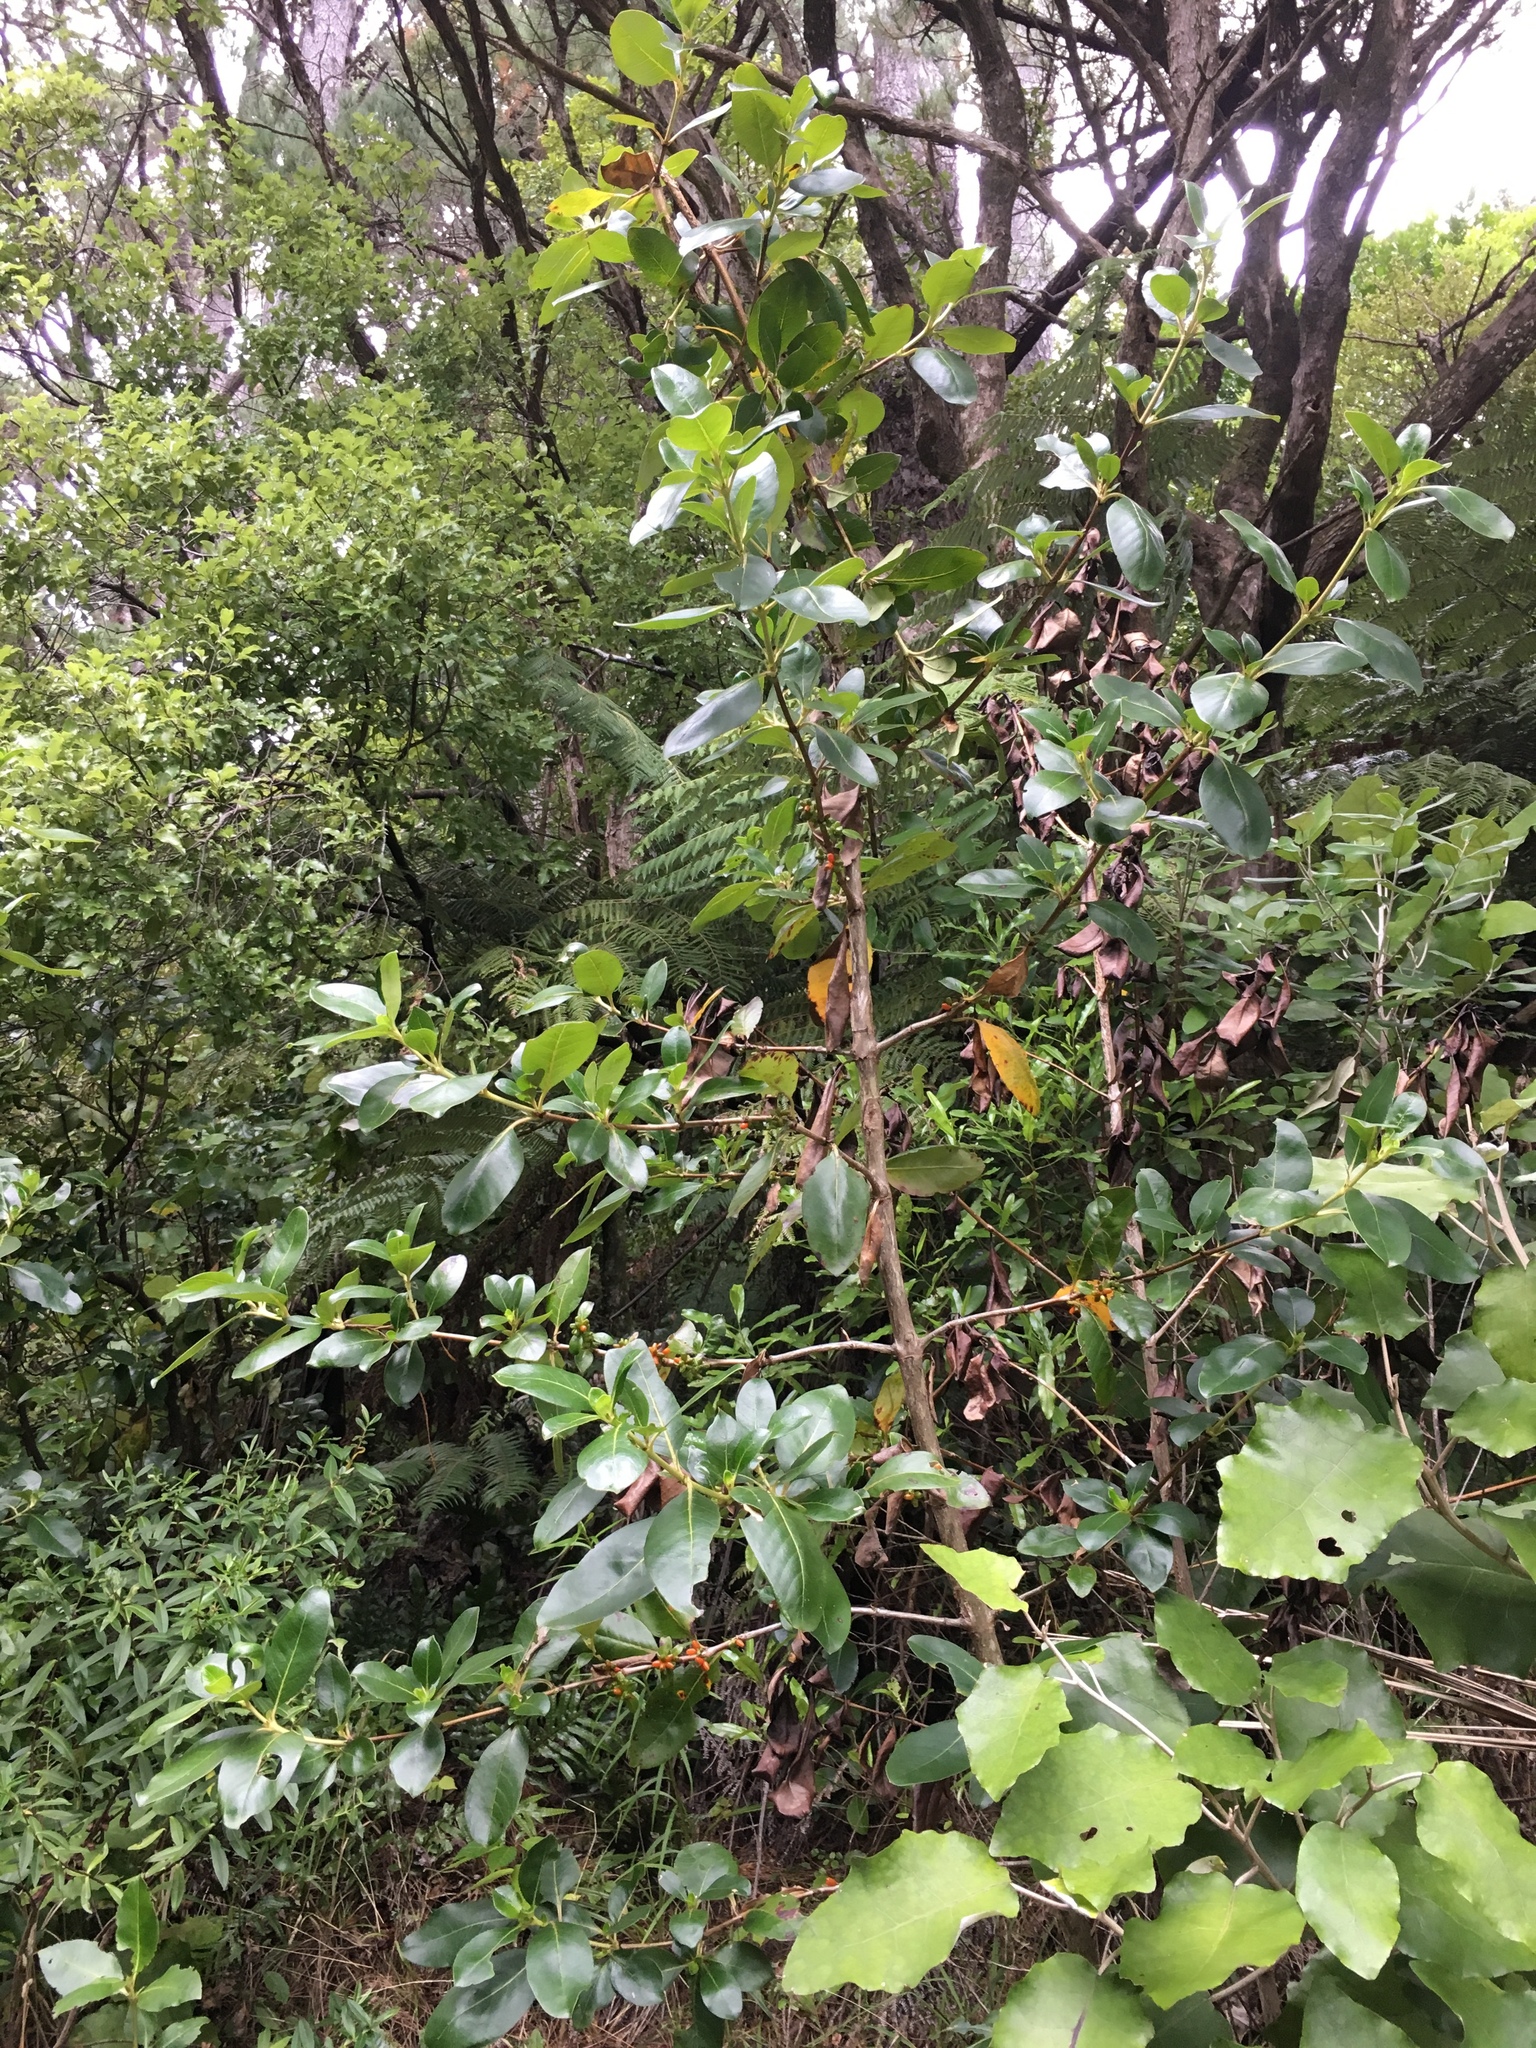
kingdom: Plantae
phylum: Tracheophyta
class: Magnoliopsida
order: Gentianales
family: Rubiaceae
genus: Coprosma
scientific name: Coprosma robusta
